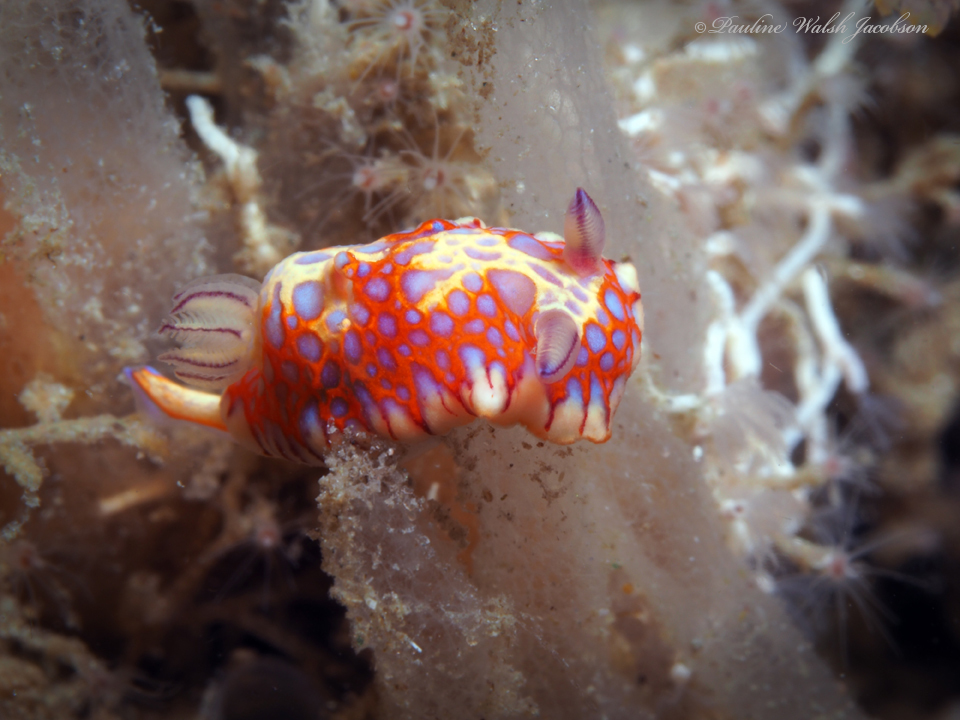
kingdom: Animalia
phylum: Mollusca
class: Gastropoda
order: Nudibranchia
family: Chromodorididae
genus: Felimida
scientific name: Felimida binza
